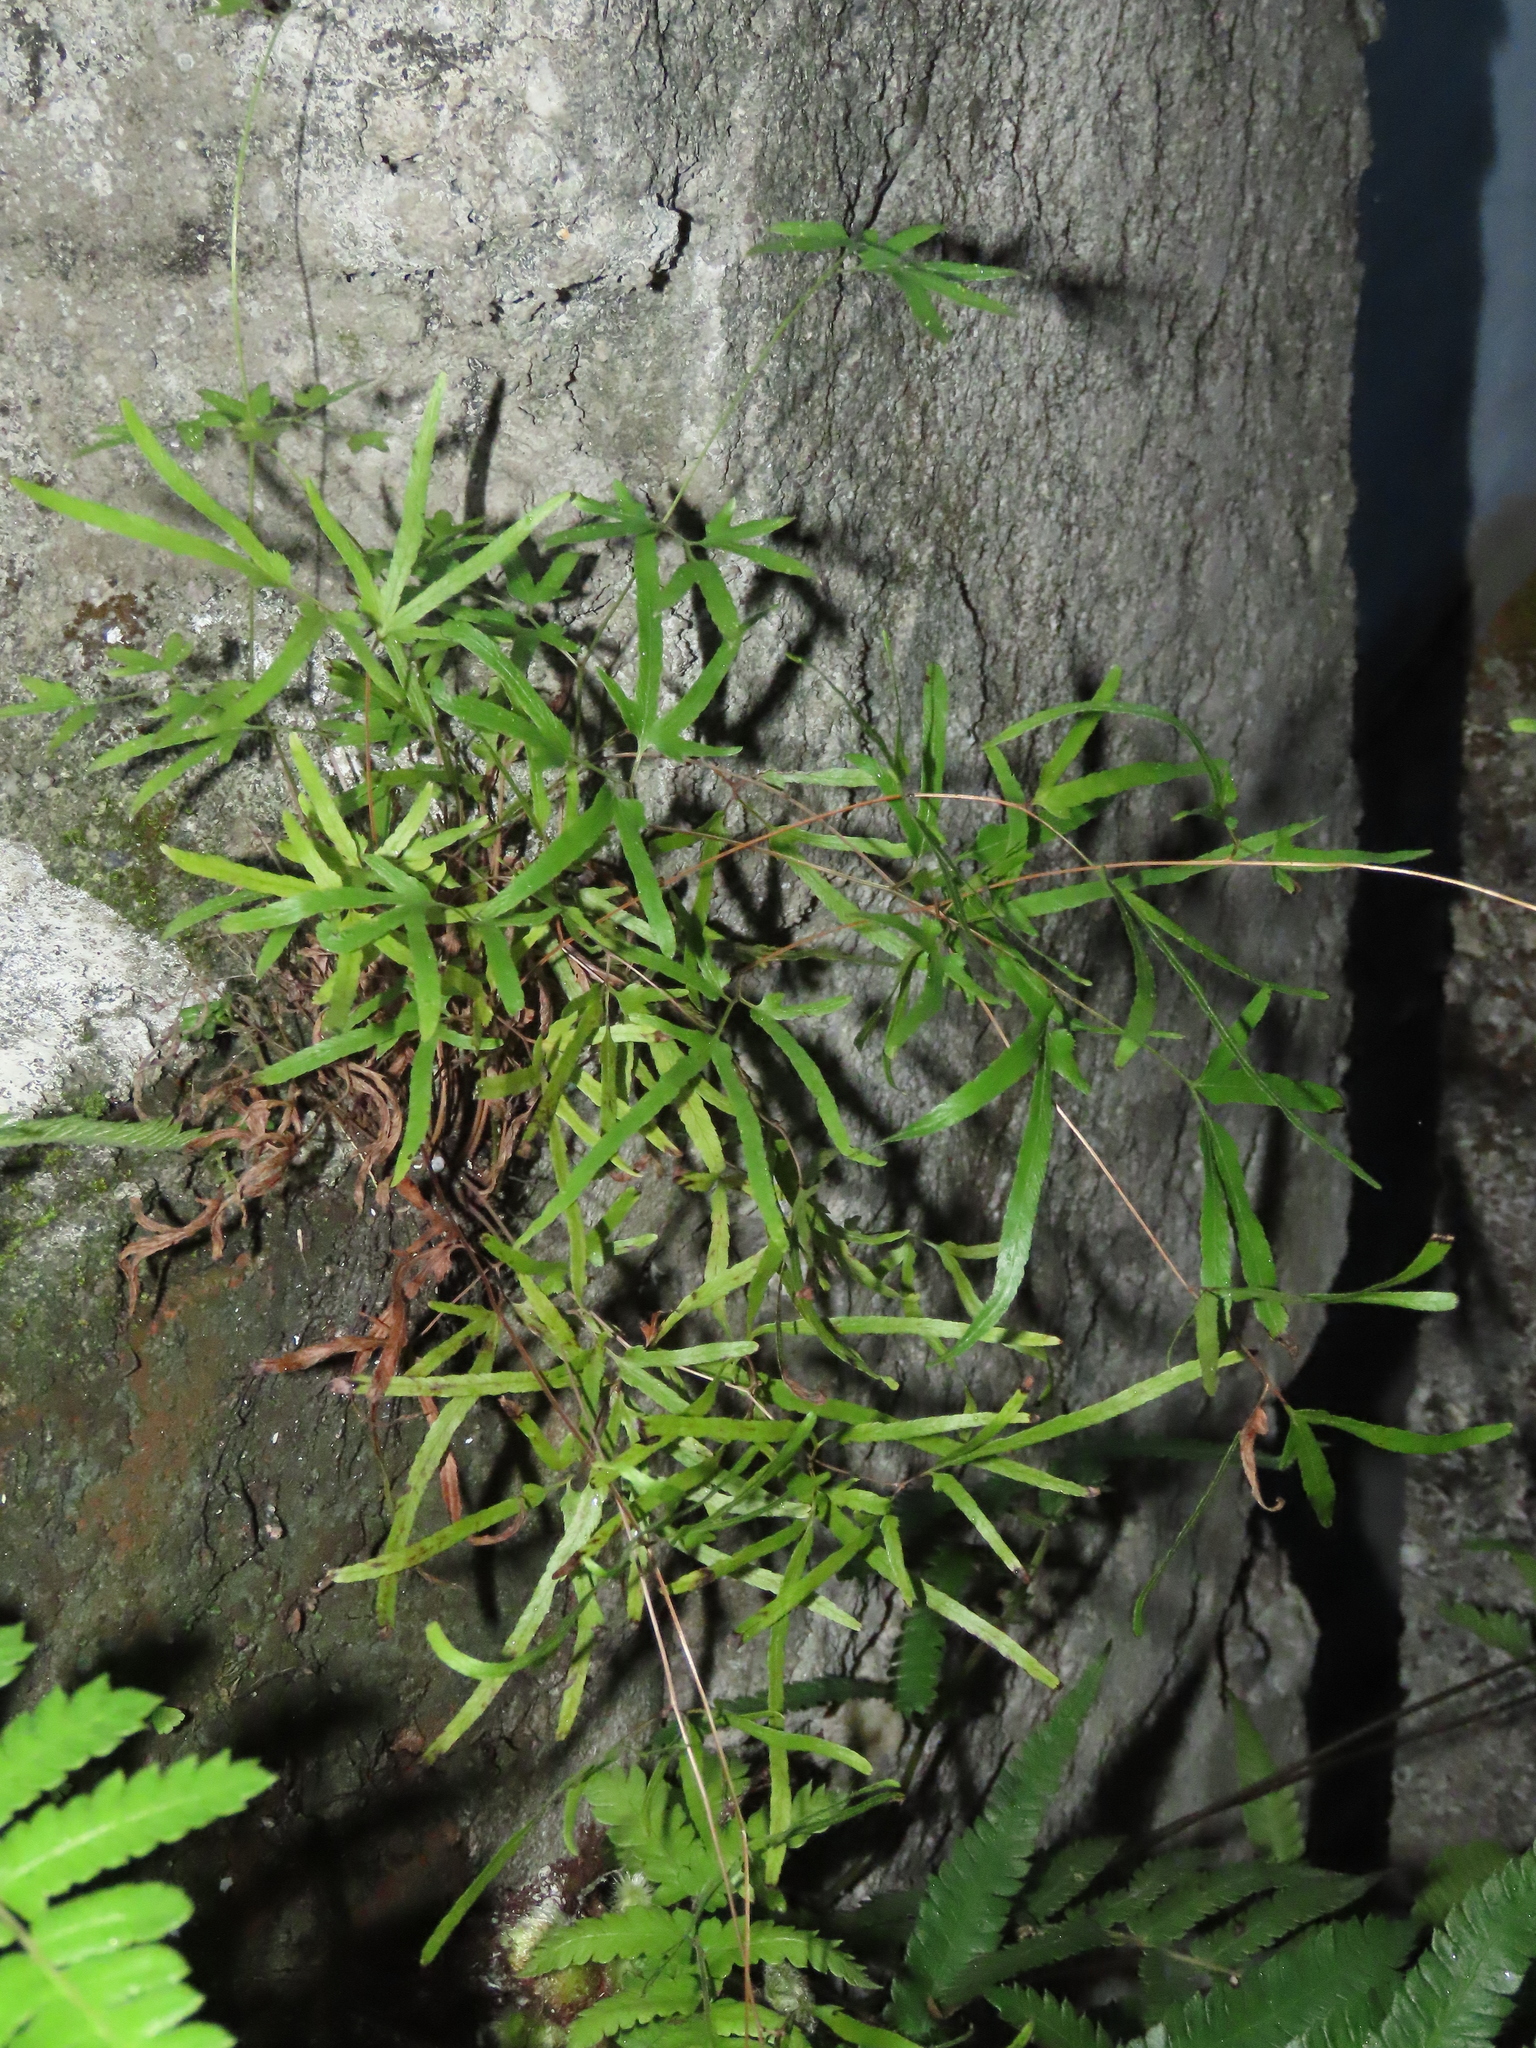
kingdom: Plantae
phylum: Tracheophyta
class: Polypodiopsida
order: Schizaeales
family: Lygodiaceae
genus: Lygodium
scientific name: Lygodium japonicum
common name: Japanese climbing fern
